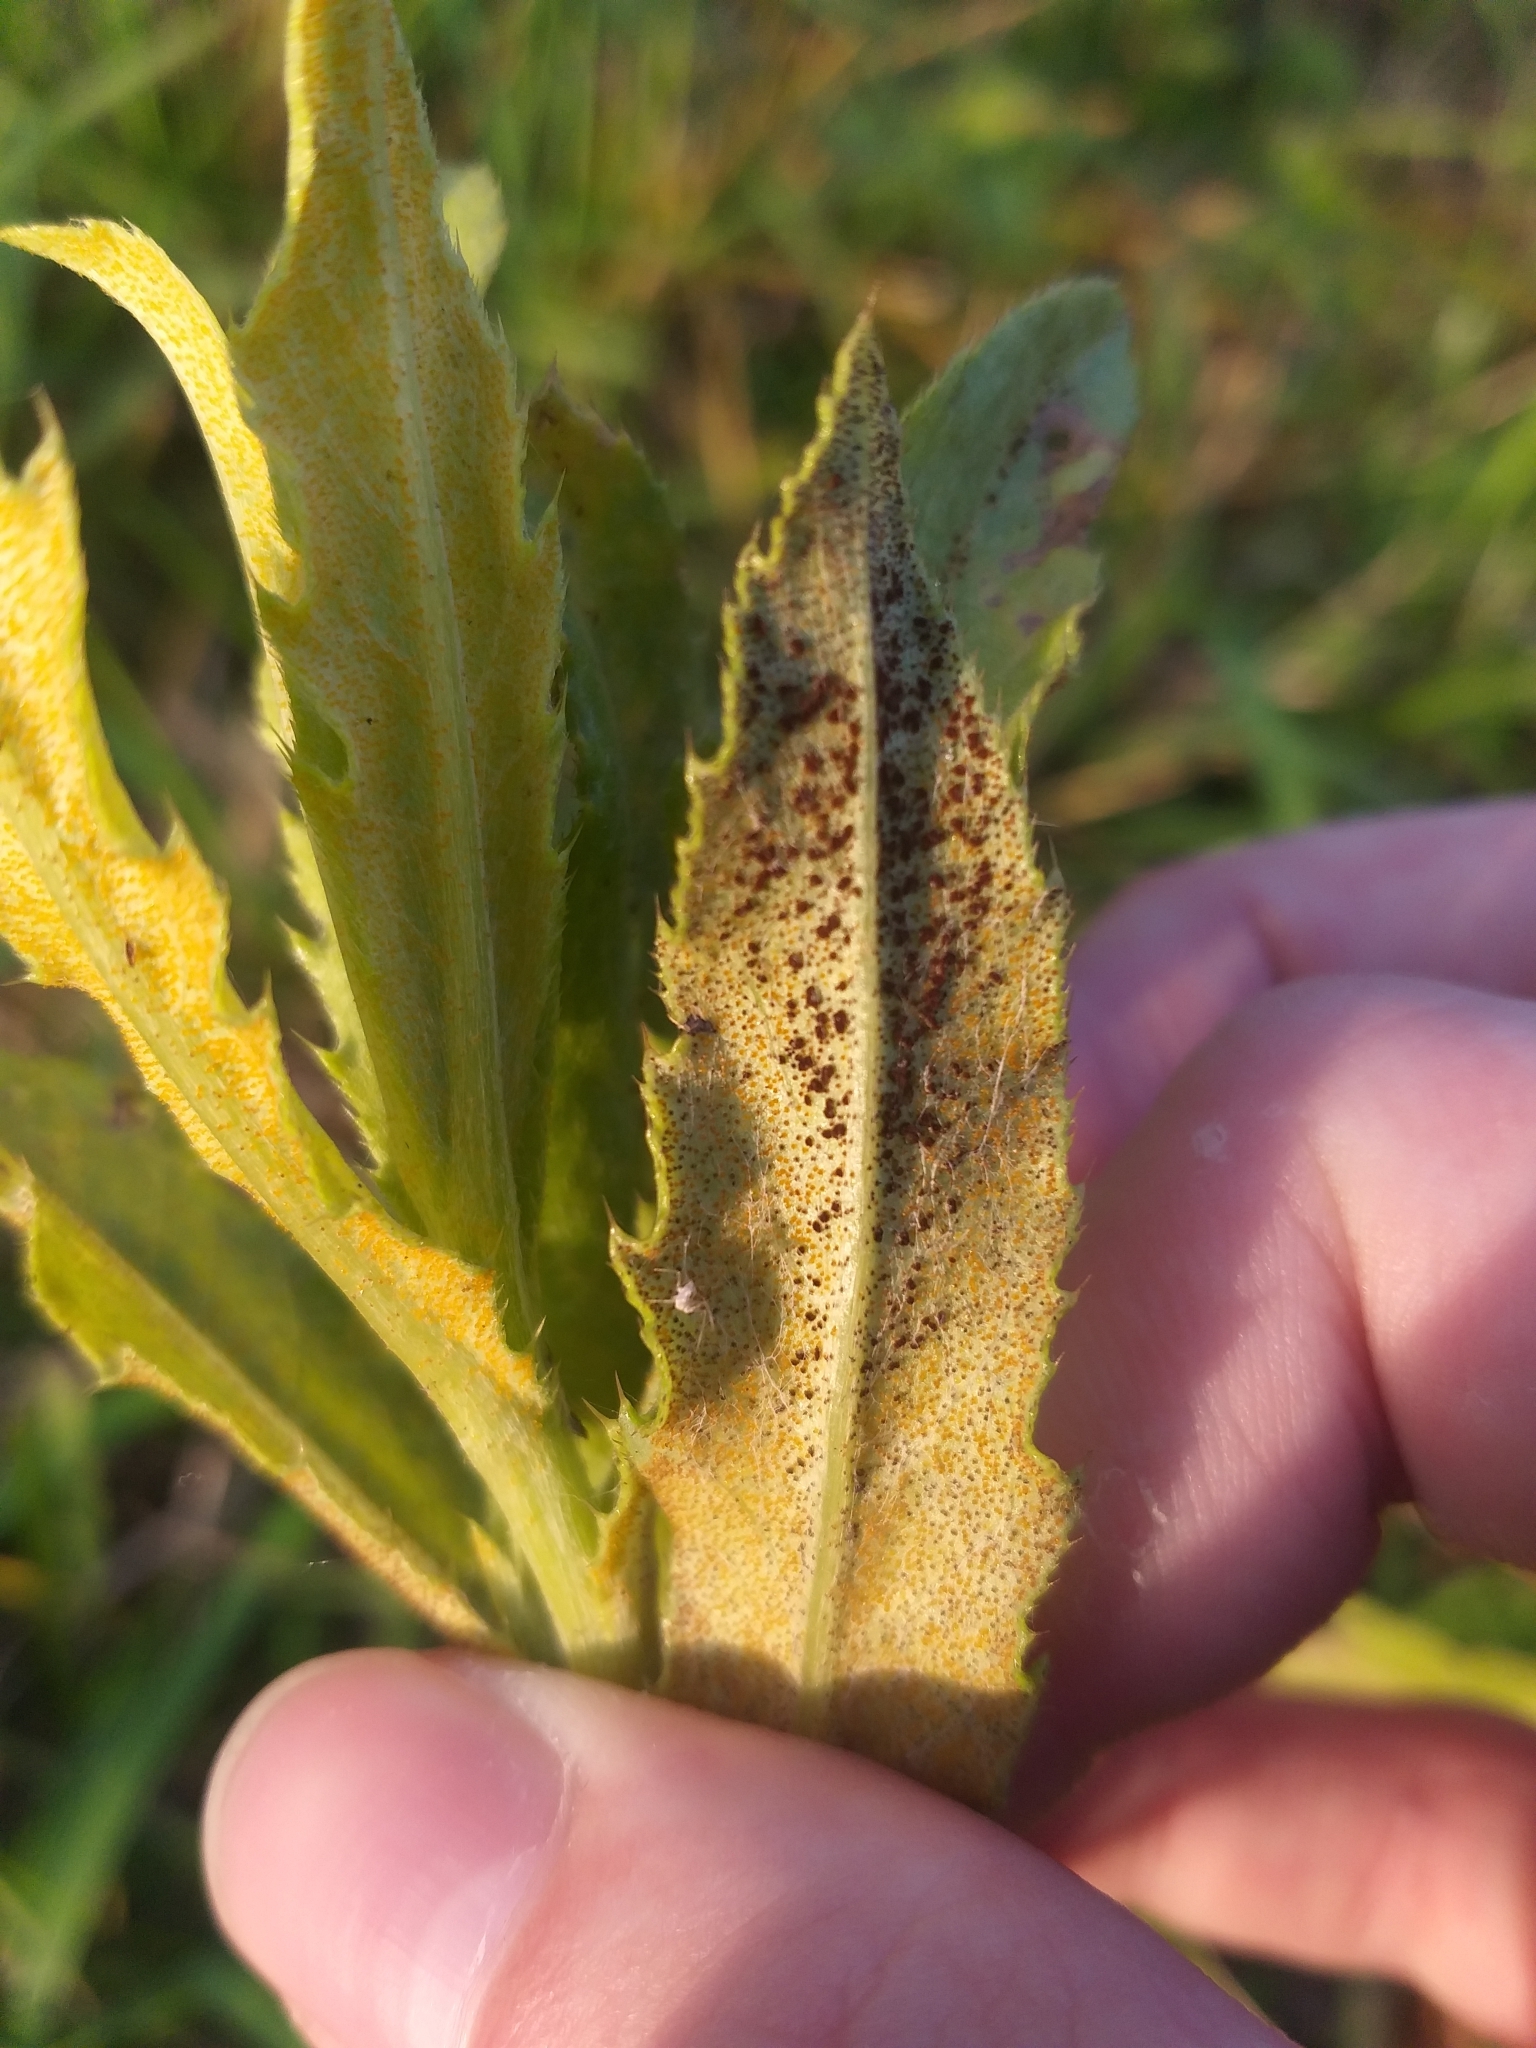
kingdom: Fungi
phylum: Basidiomycota
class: Pucciniomycetes
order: Pucciniales
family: Pucciniaceae
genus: Puccinia
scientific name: Puccinia suaveolens
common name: Thistle rust
